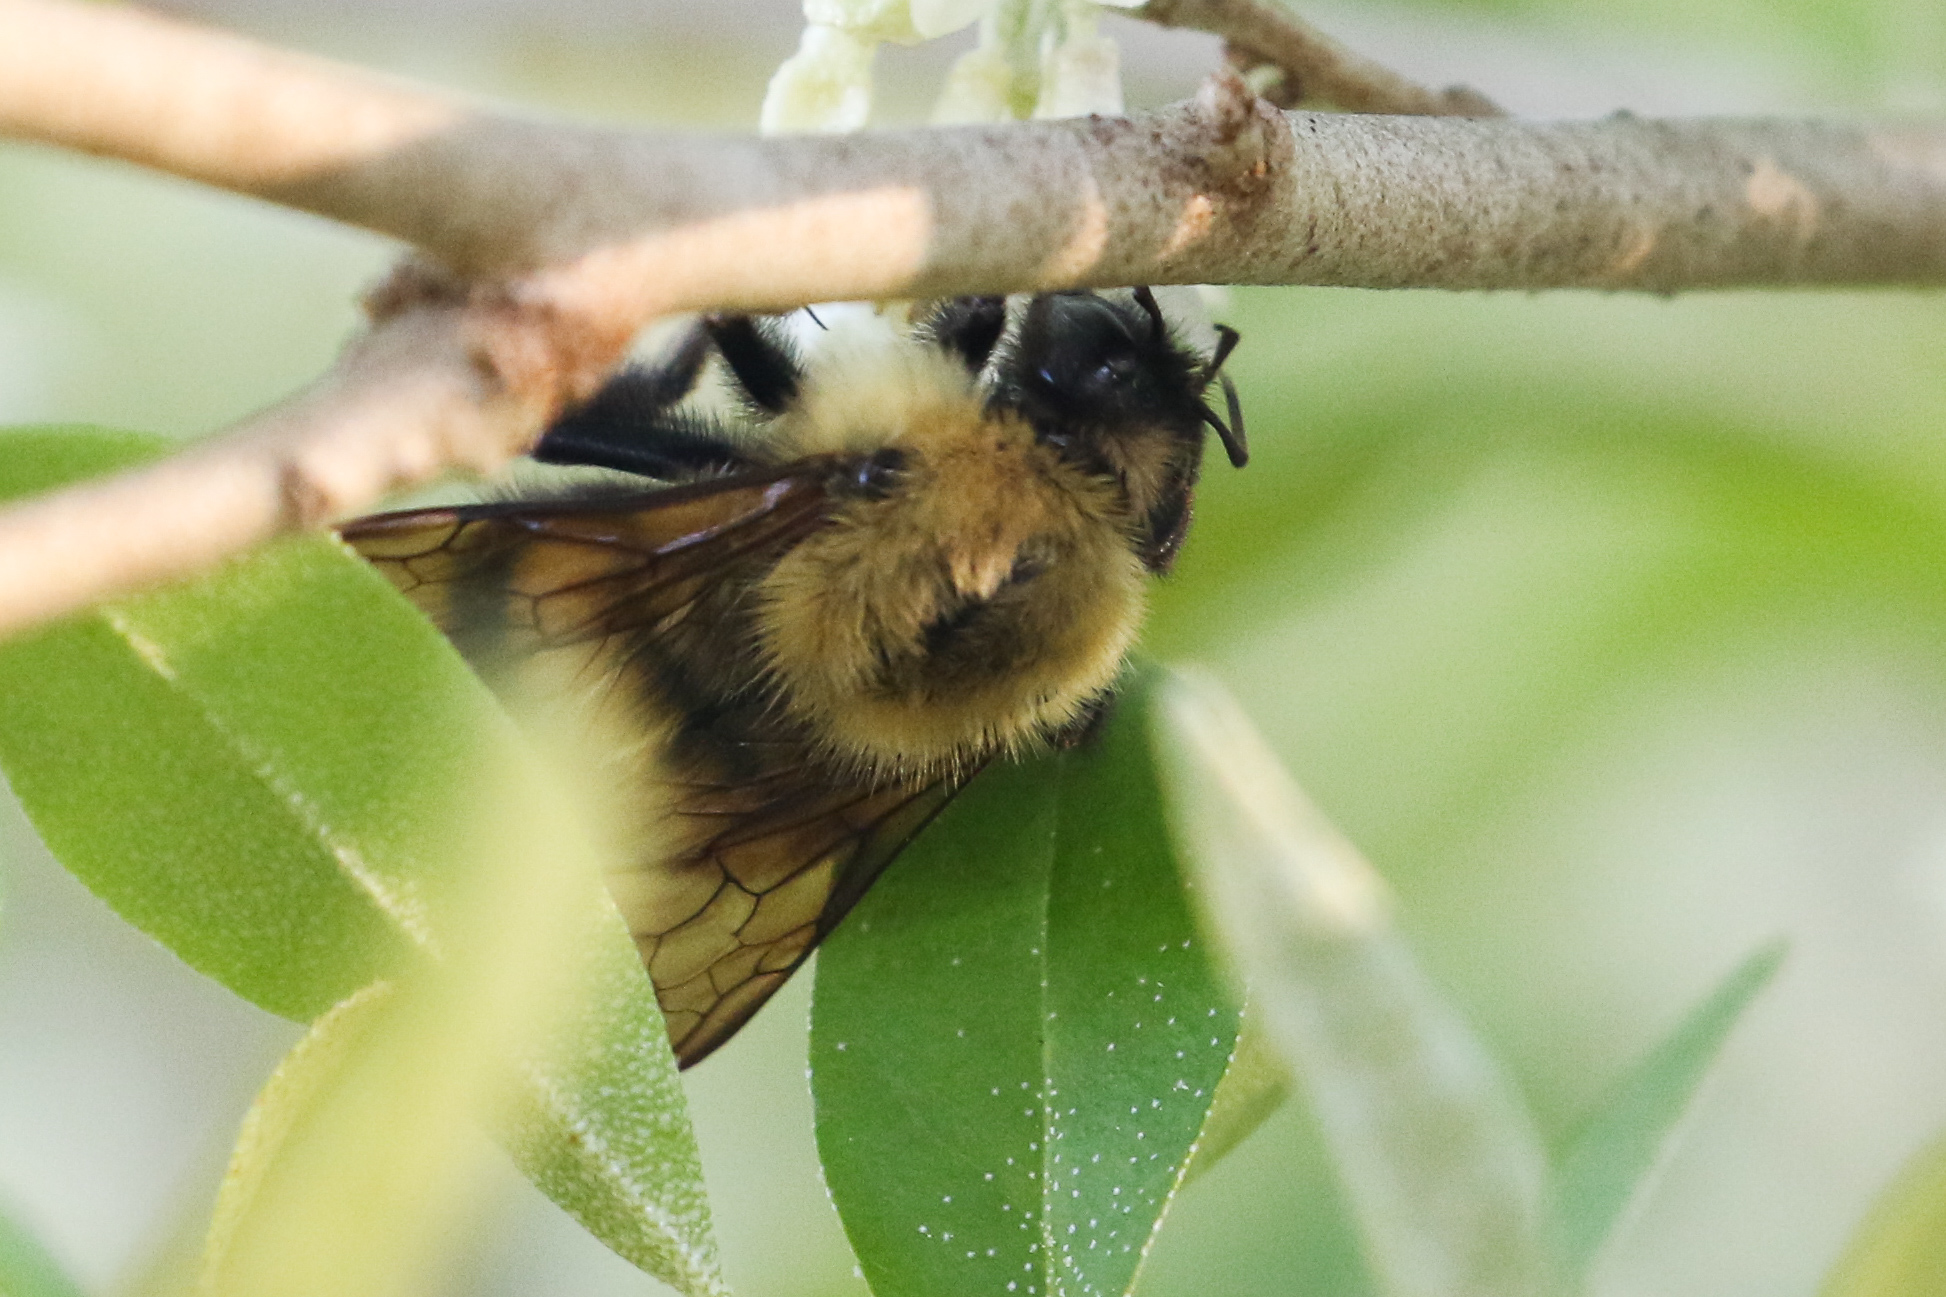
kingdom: Animalia
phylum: Arthropoda
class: Insecta
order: Hymenoptera
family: Apidae
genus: Pyrobombus
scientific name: Pyrobombus
